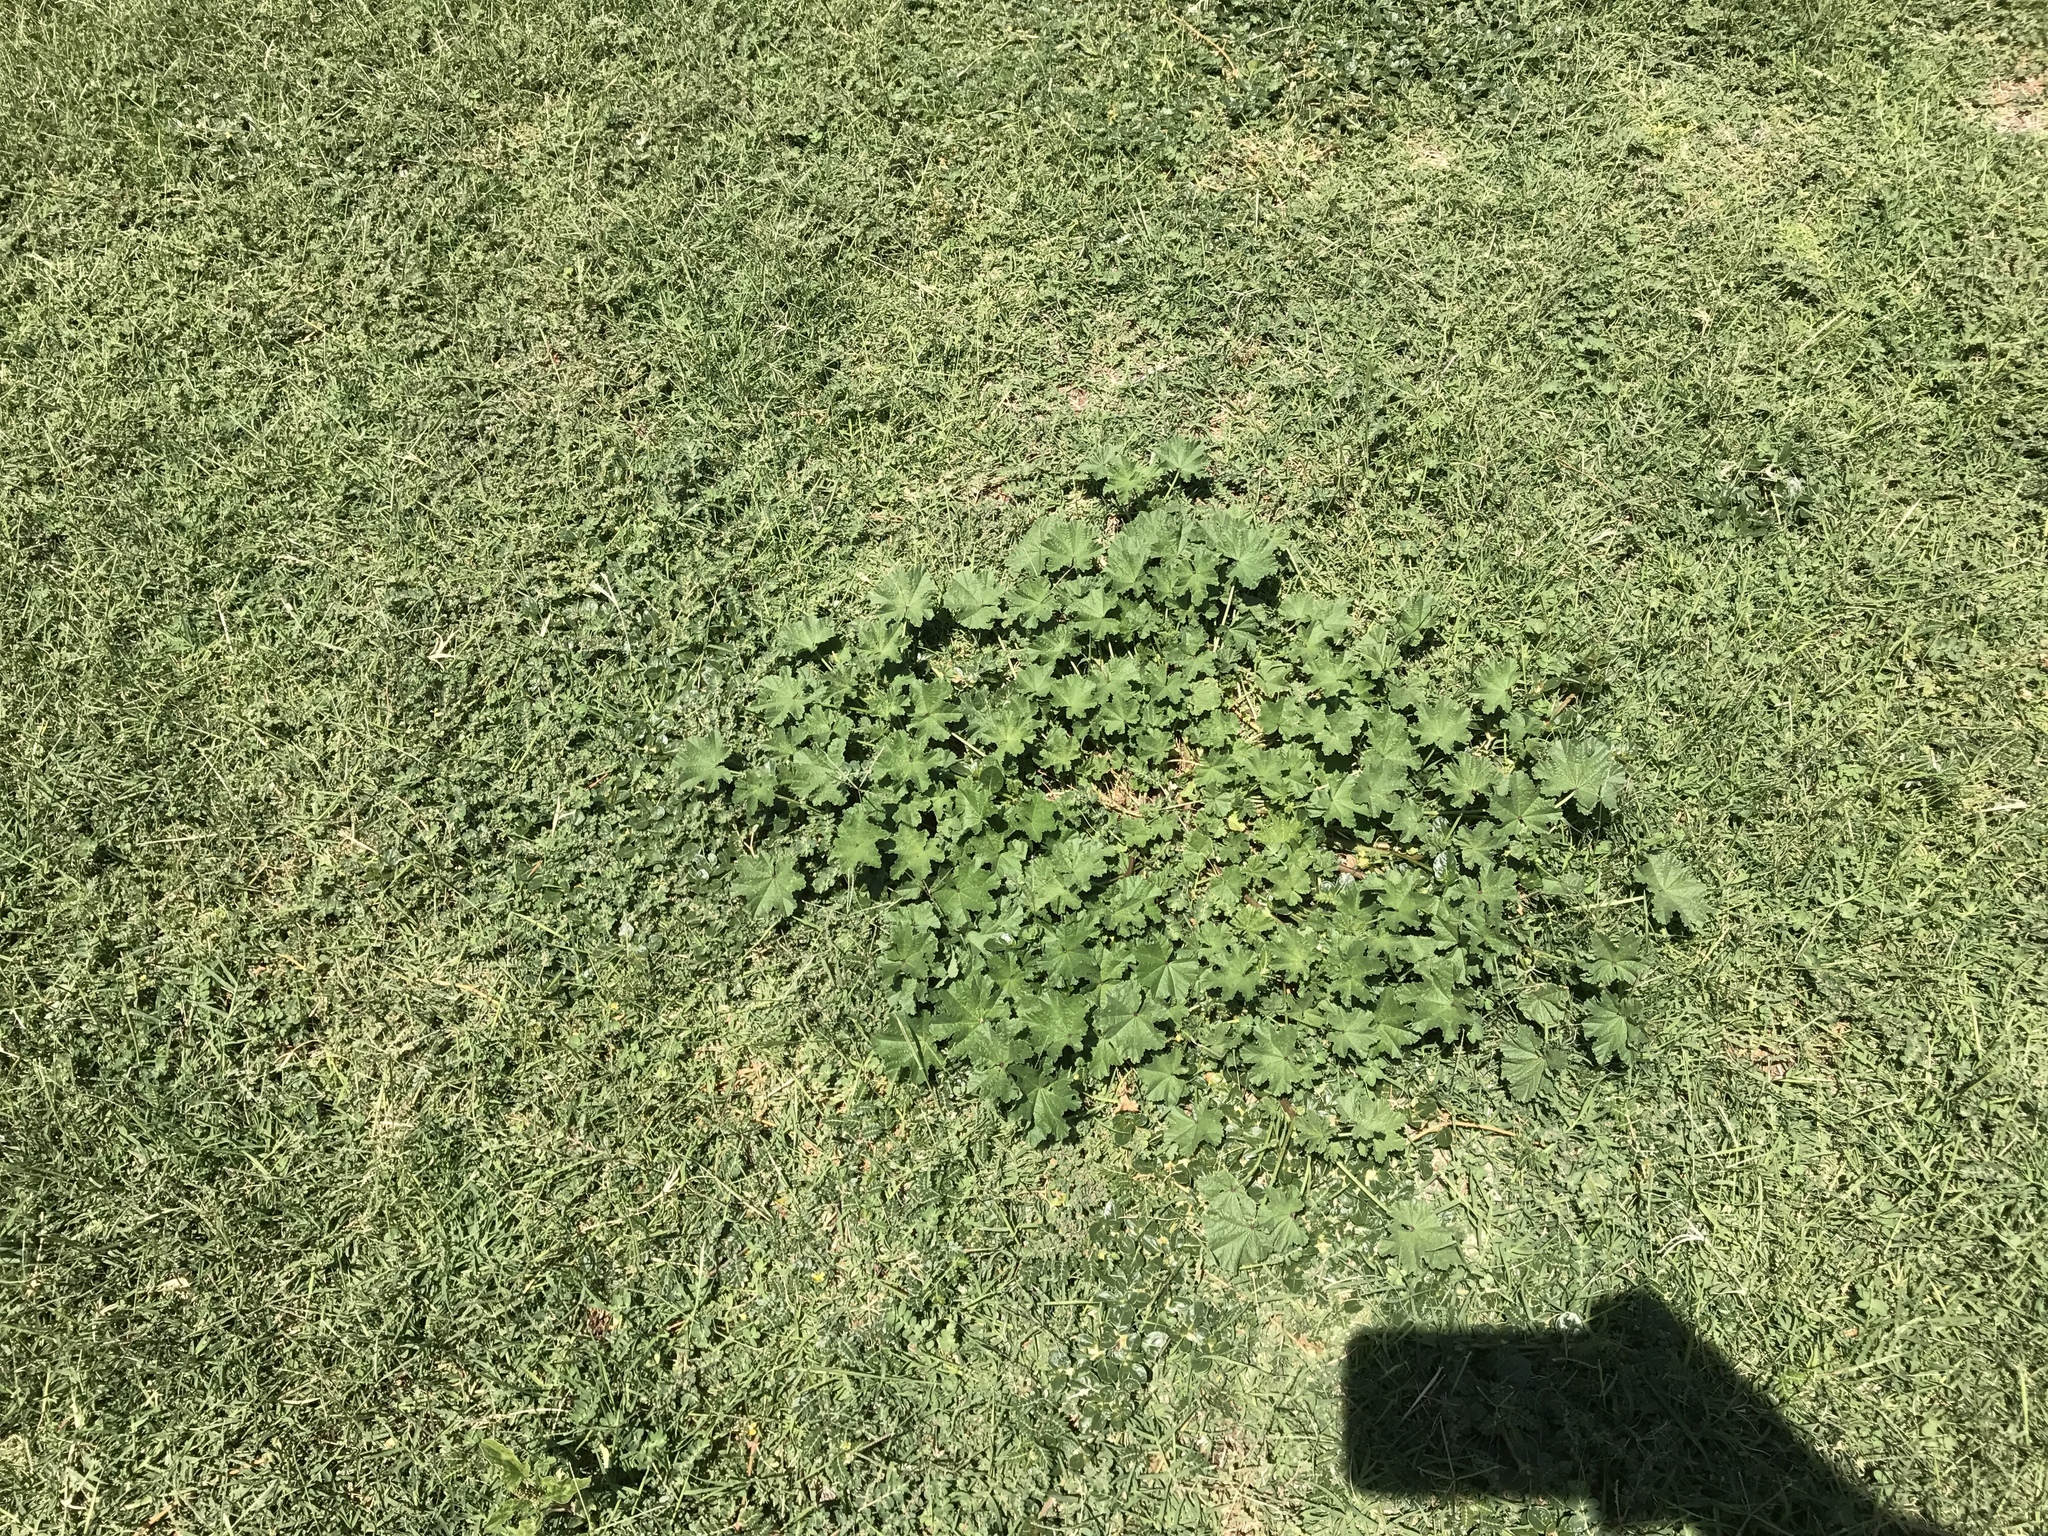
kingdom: Plantae
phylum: Tracheophyta
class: Magnoliopsida
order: Malvales
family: Malvaceae
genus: Malva
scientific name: Malva parviflora
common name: Least mallow
